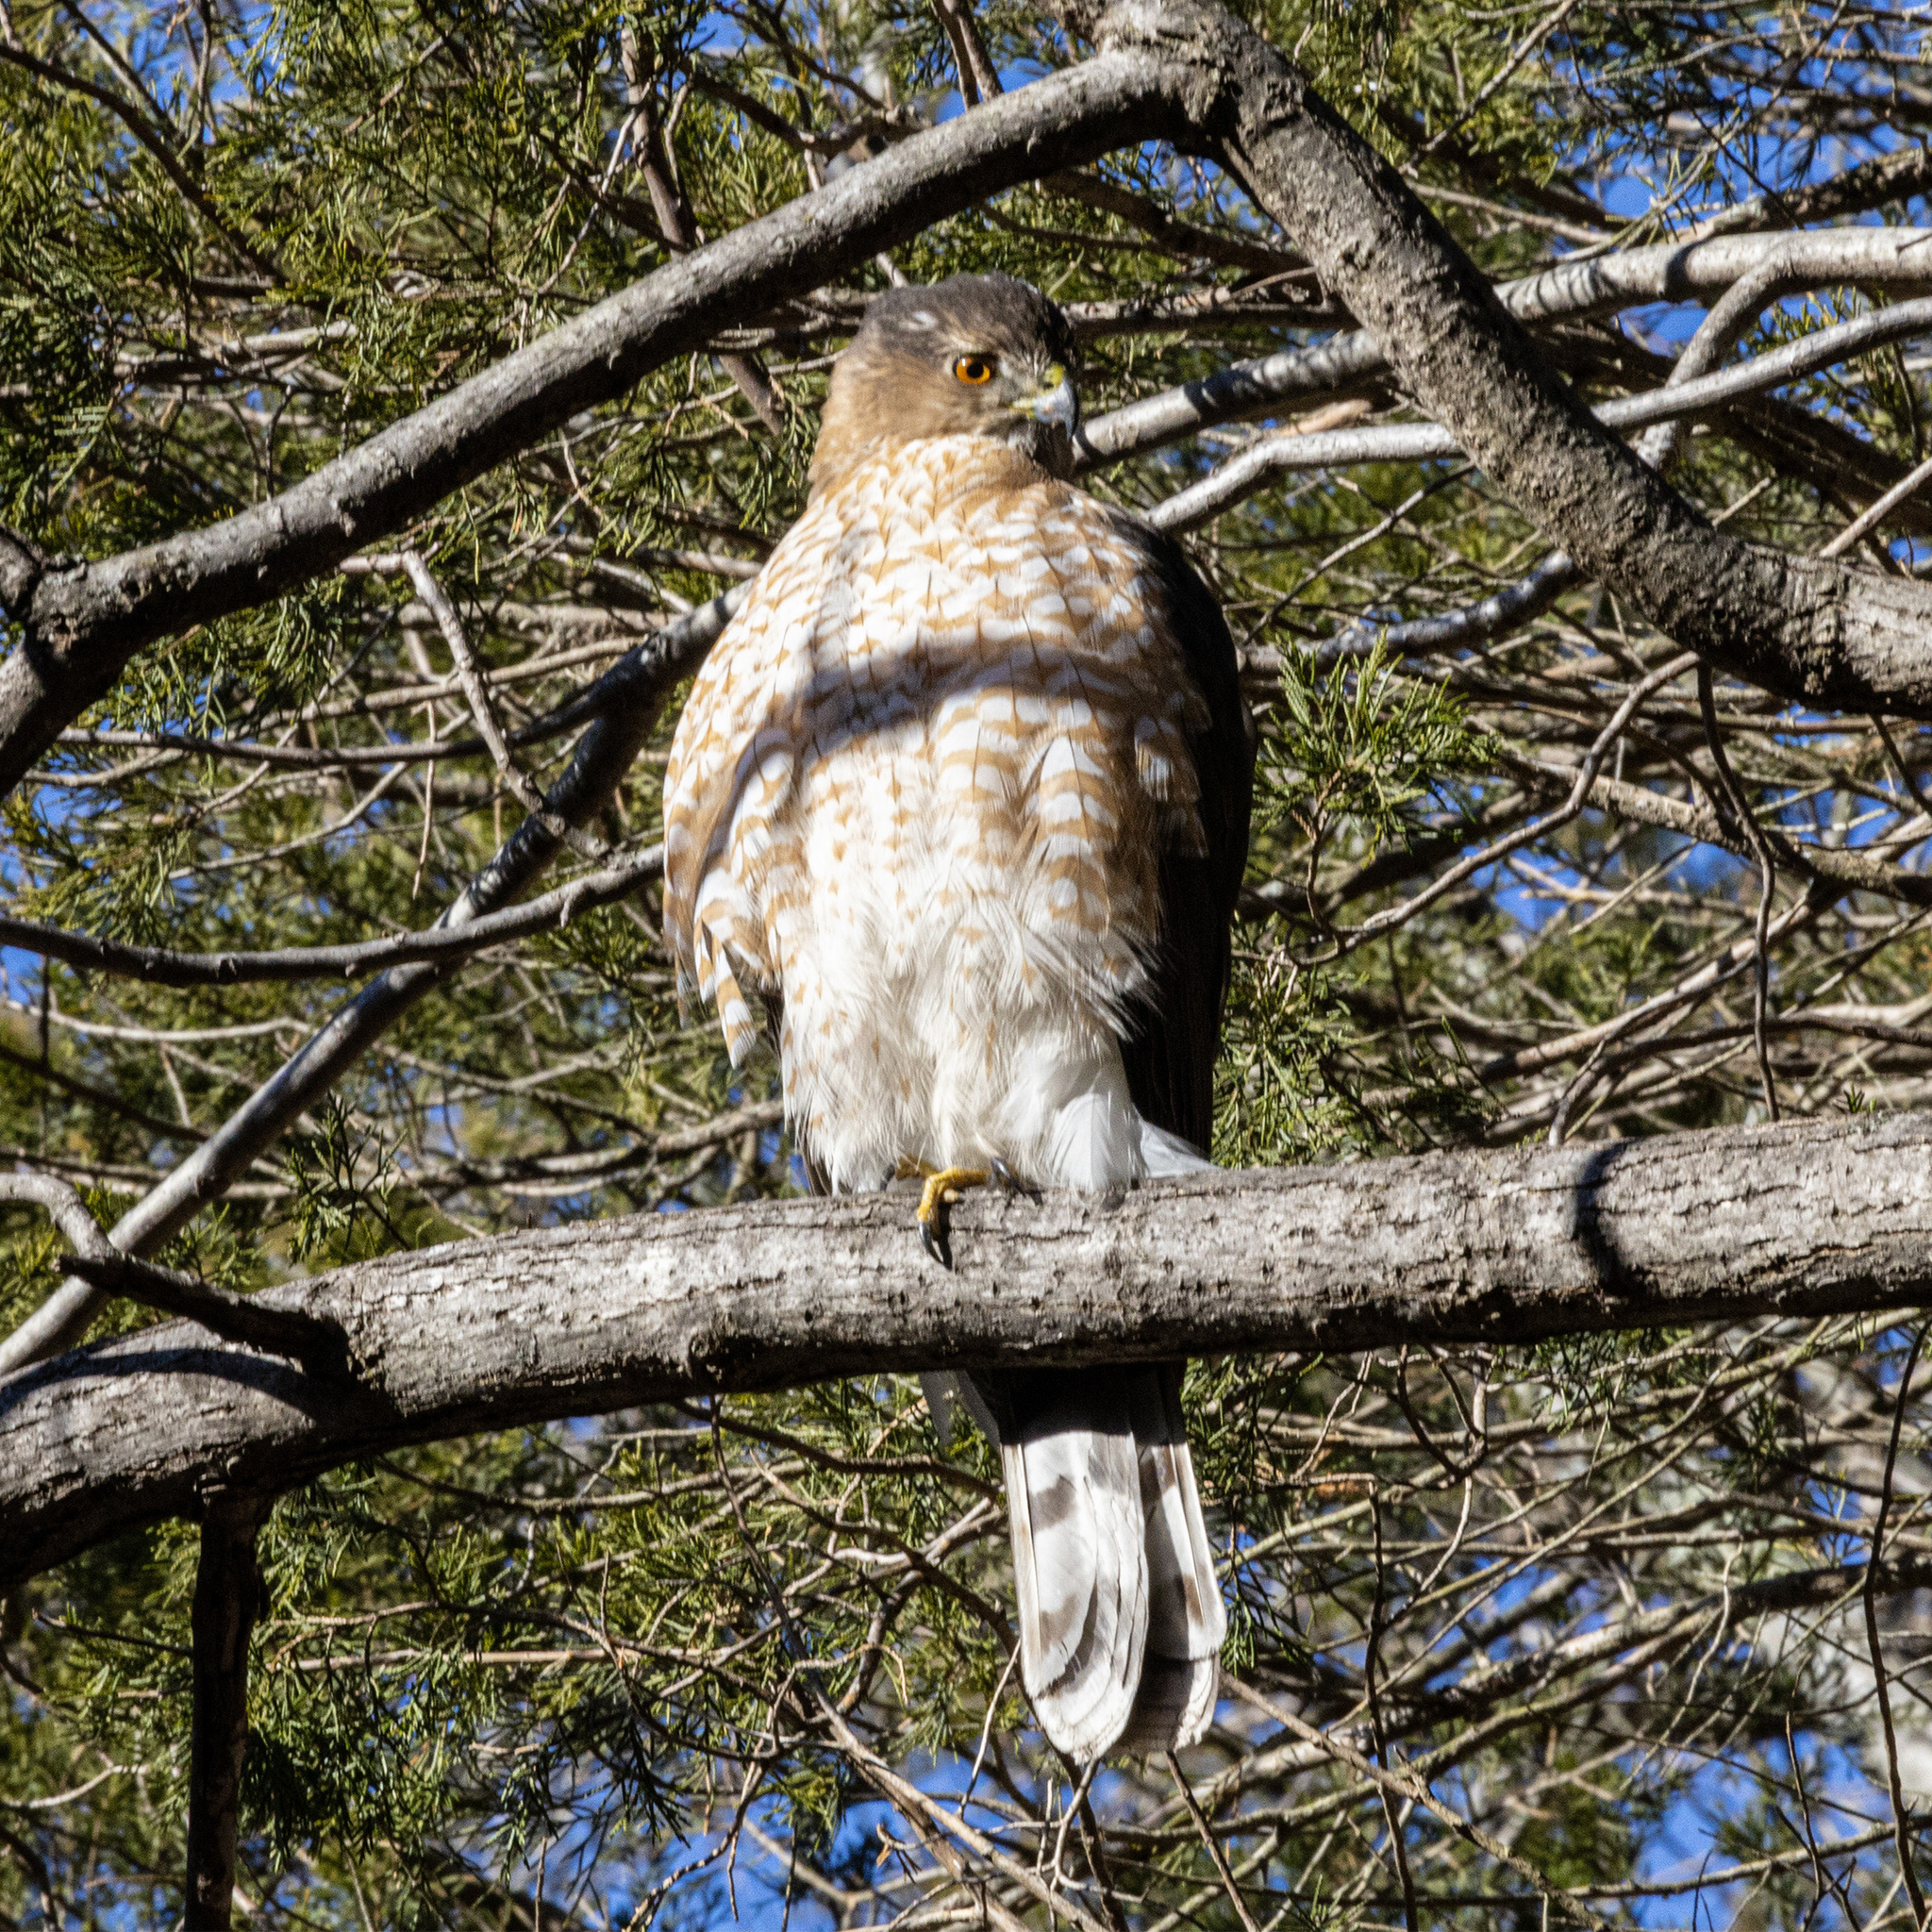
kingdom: Animalia
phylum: Chordata
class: Aves
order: Accipitriformes
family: Accipitridae
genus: Accipiter
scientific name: Accipiter cooperii
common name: Cooper's hawk
